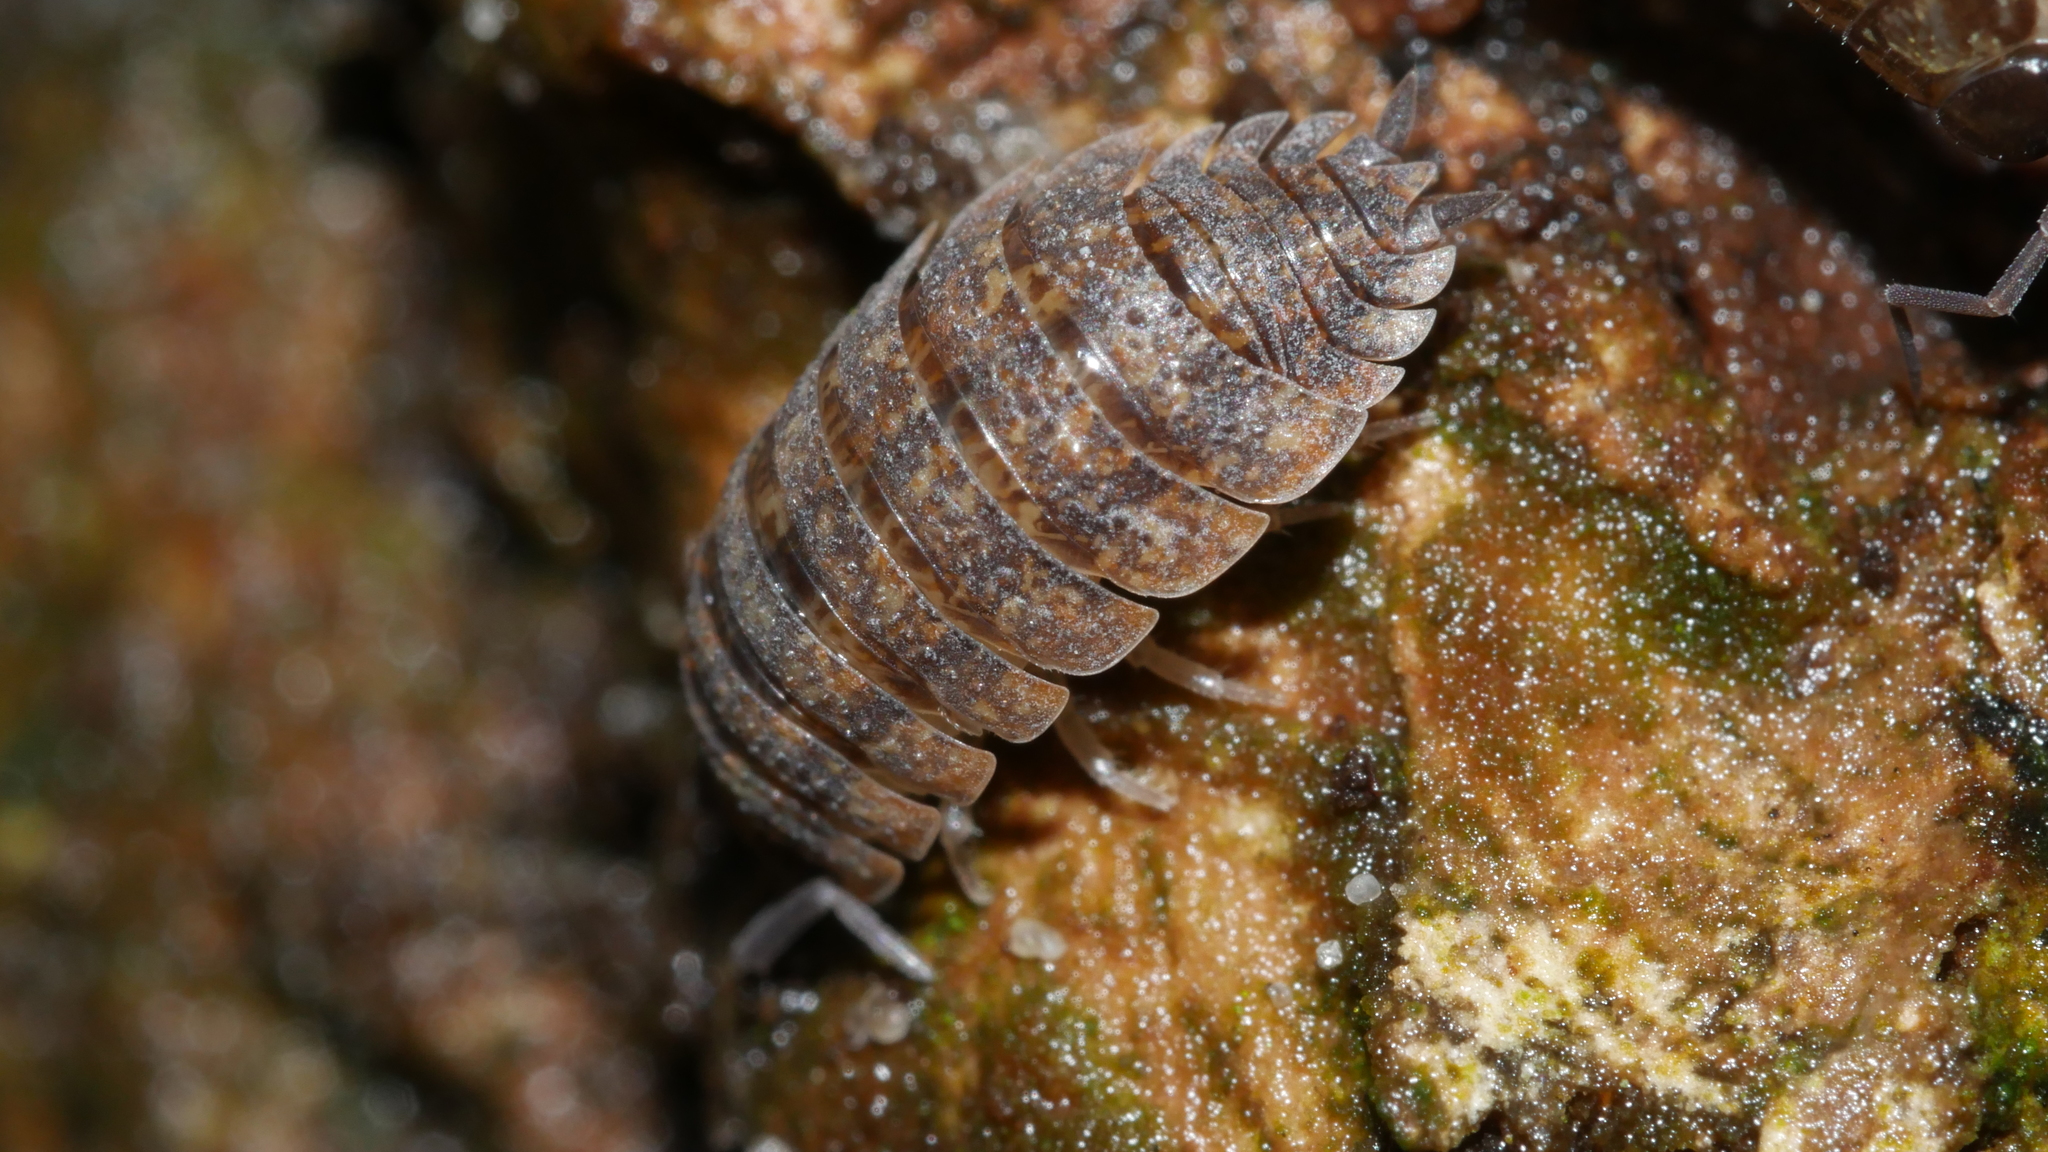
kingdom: Animalia
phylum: Arthropoda
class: Malacostraca
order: Isopoda
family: Porcellionidae
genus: Porcellio
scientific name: Porcellio scaber
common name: Common rough woodlouse
